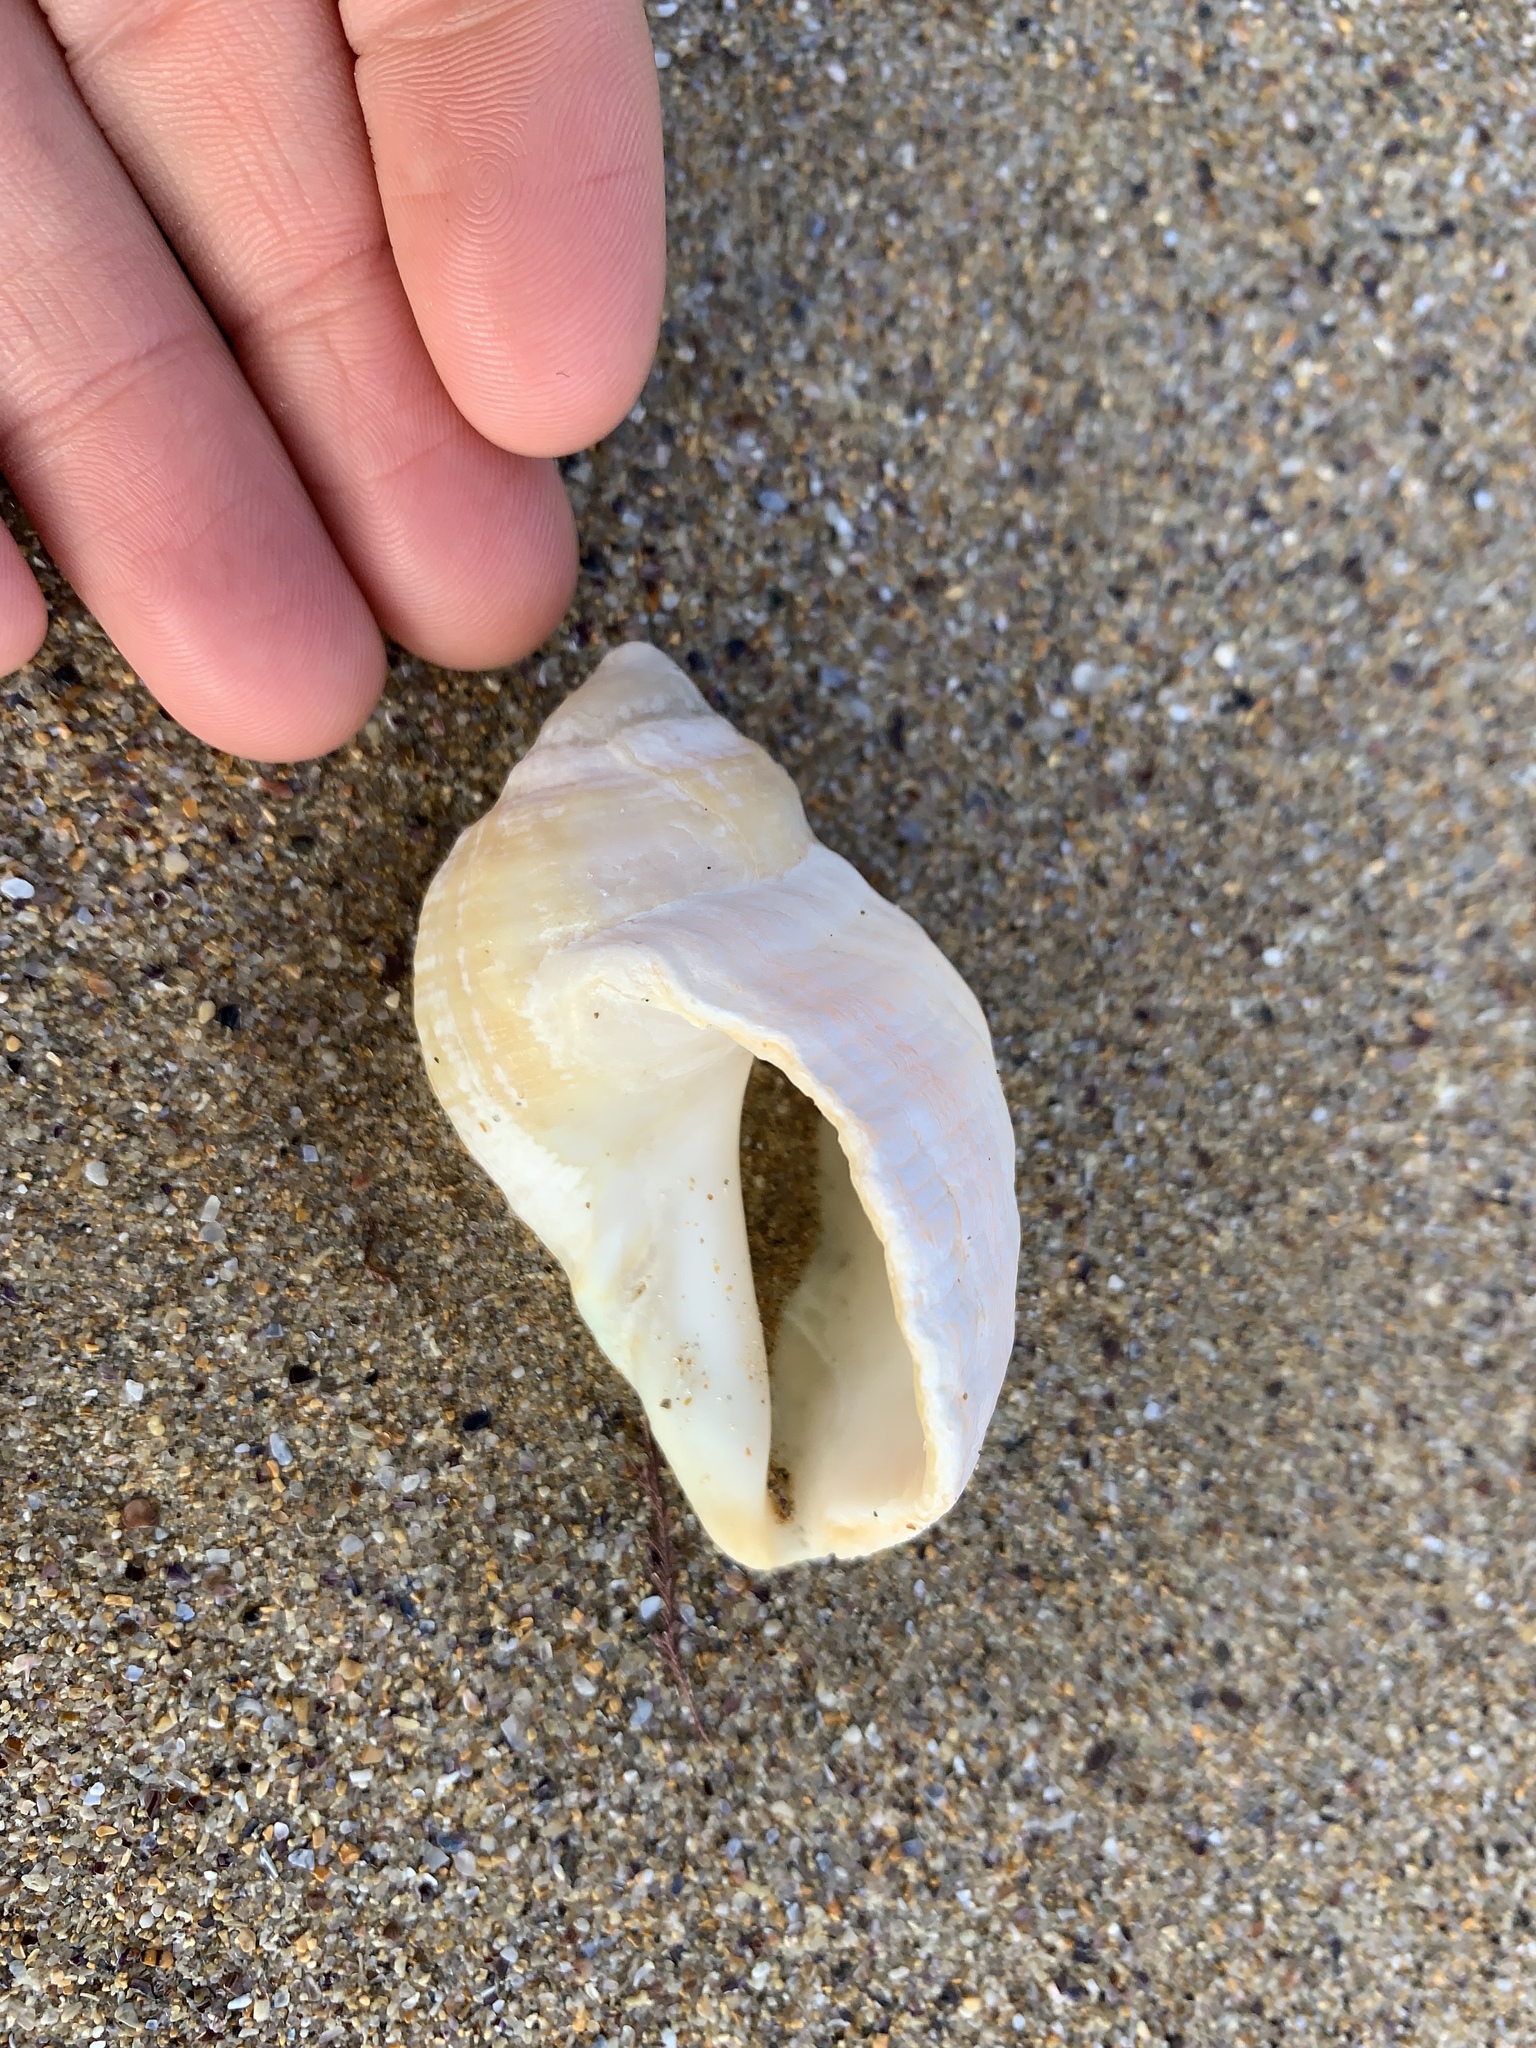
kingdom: Animalia
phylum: Mollusca
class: Gastropoda
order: Neogastropoda
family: Muricidae
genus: Dicathais
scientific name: Dicathais orbita
